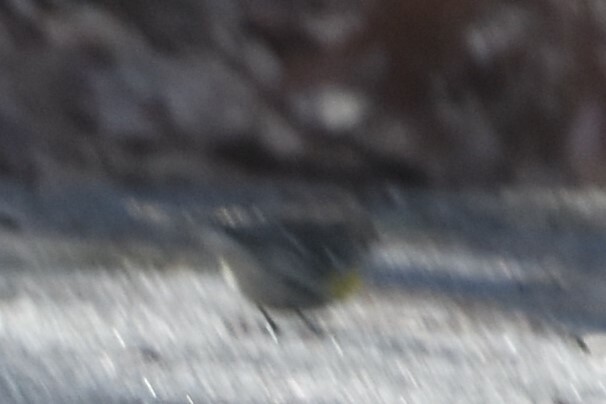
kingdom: Animalia
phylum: Chordata
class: Aves
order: Passeriformes
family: Parulidae
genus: Setophaga
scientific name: Setophaga coronata
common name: Myrtle warbler
